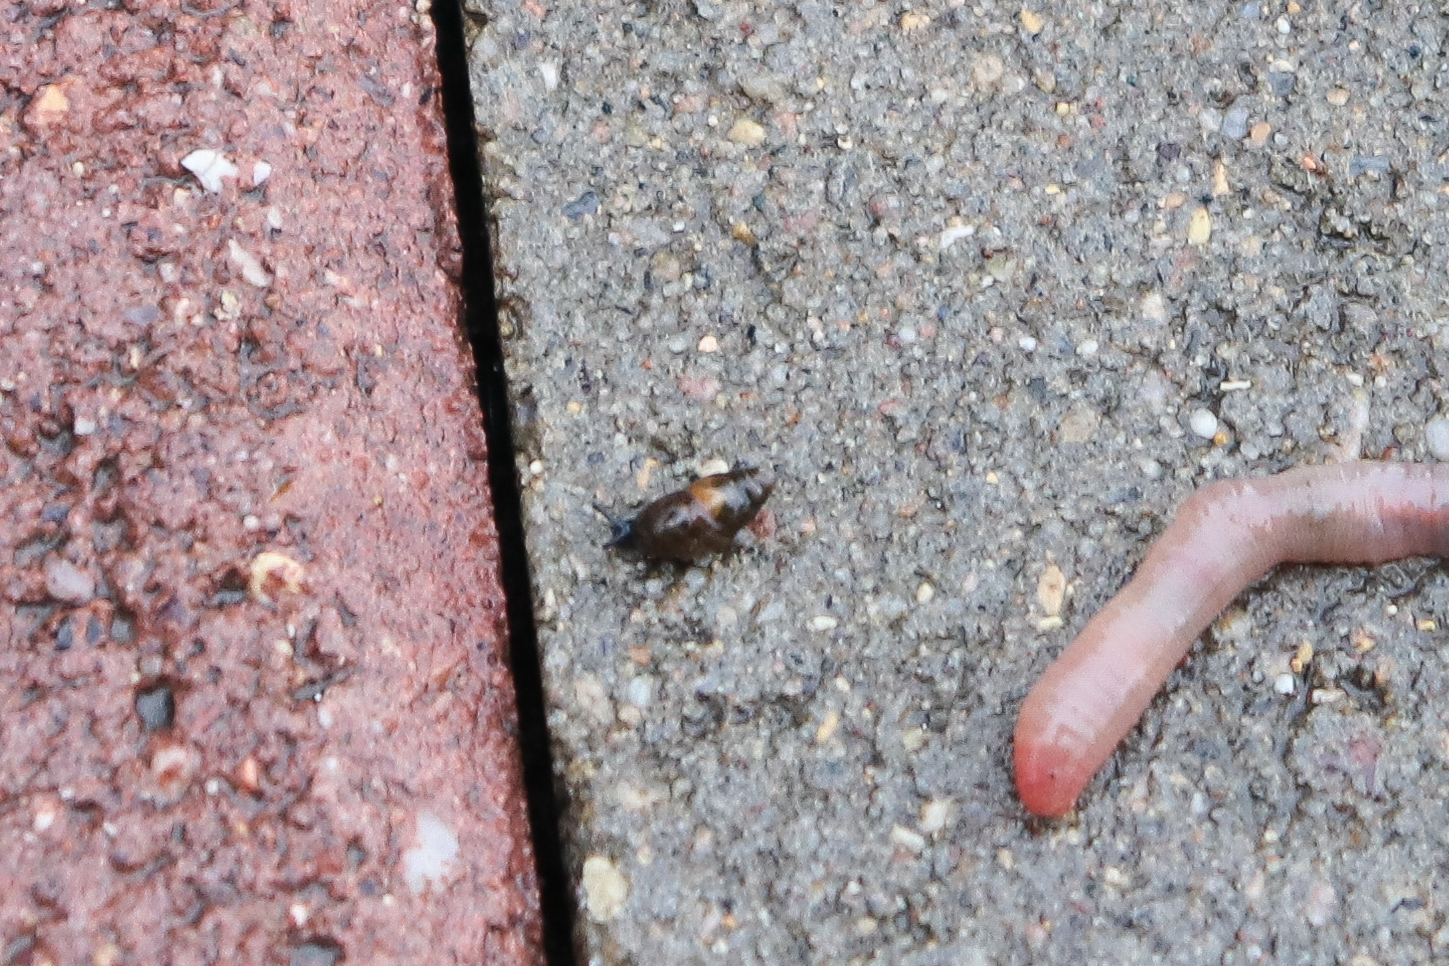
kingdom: Animalia
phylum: Mollusca
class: Gastropoda
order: Stylommatophora
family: Cochlicopidae
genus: Cochlicopa
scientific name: Cochlicopa lubrica
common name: Glossy pillar snail
